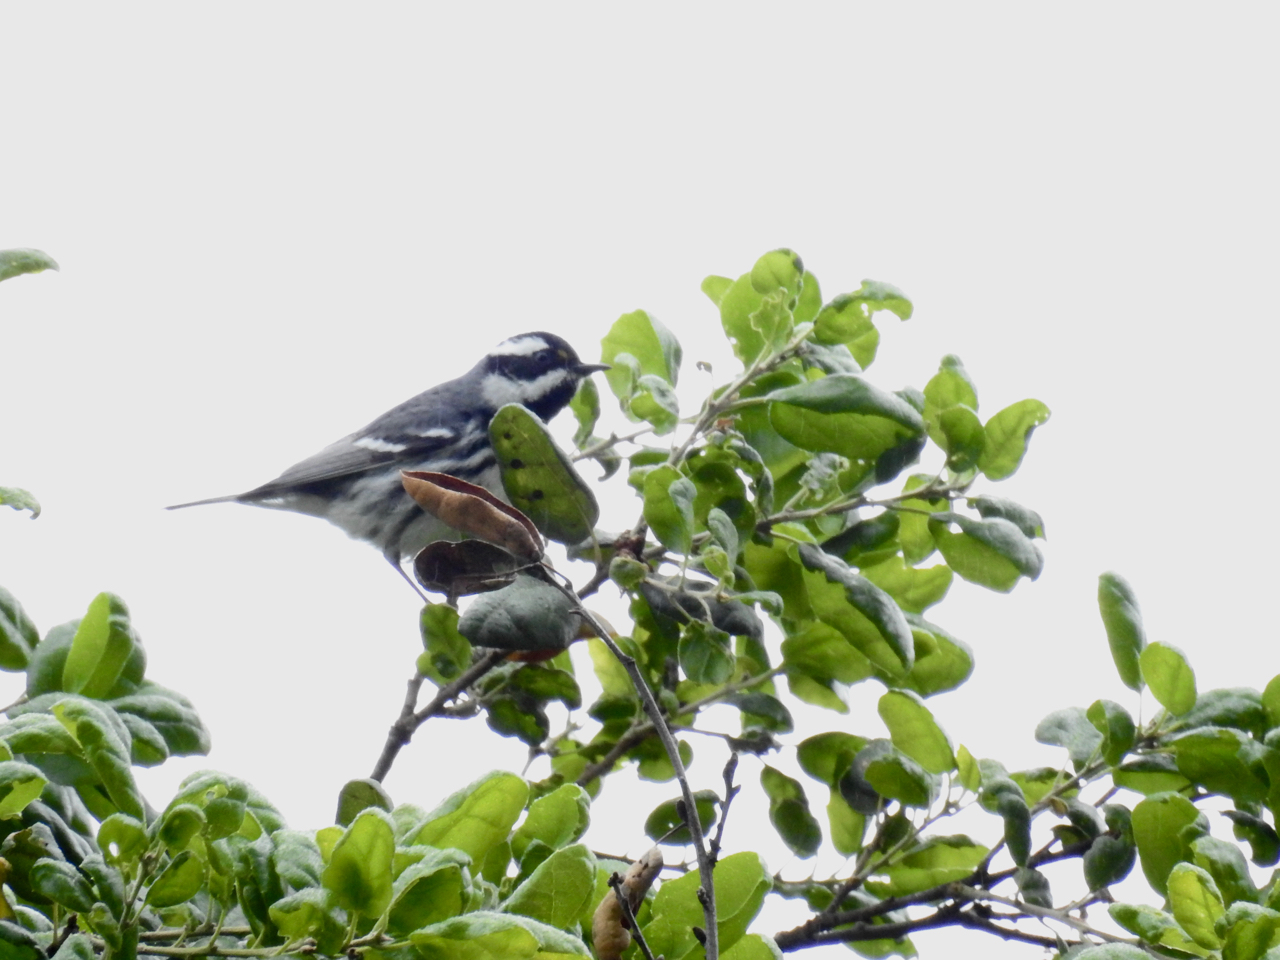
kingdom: Animalia
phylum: Chordata
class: Aves
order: Passeriformes
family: Parulidae
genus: Setophaga
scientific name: Setophaga nigrescens
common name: Black-throated gray warbler
